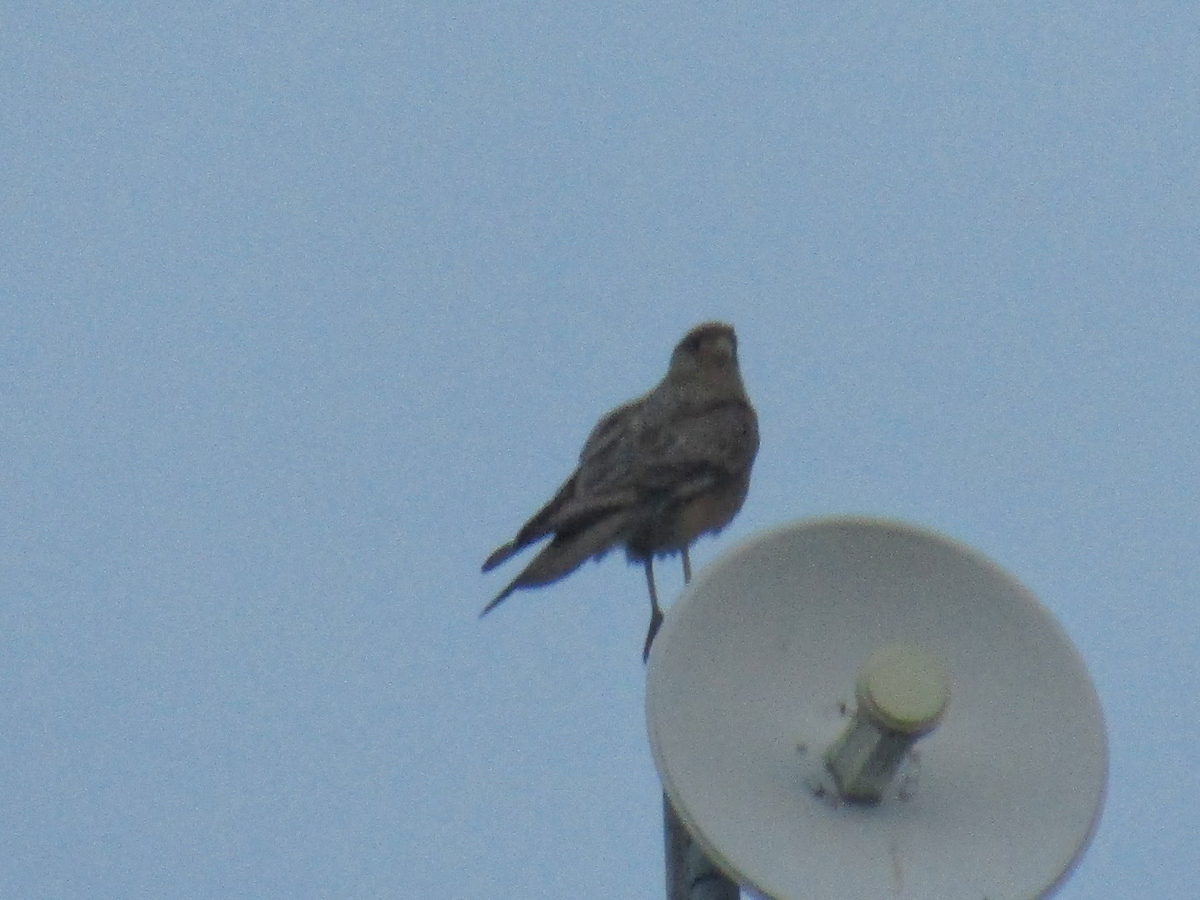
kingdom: Animalia
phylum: Chordata
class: Aves
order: Falconiformes
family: Falconidae
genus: Daptrius
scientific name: Daptrius
